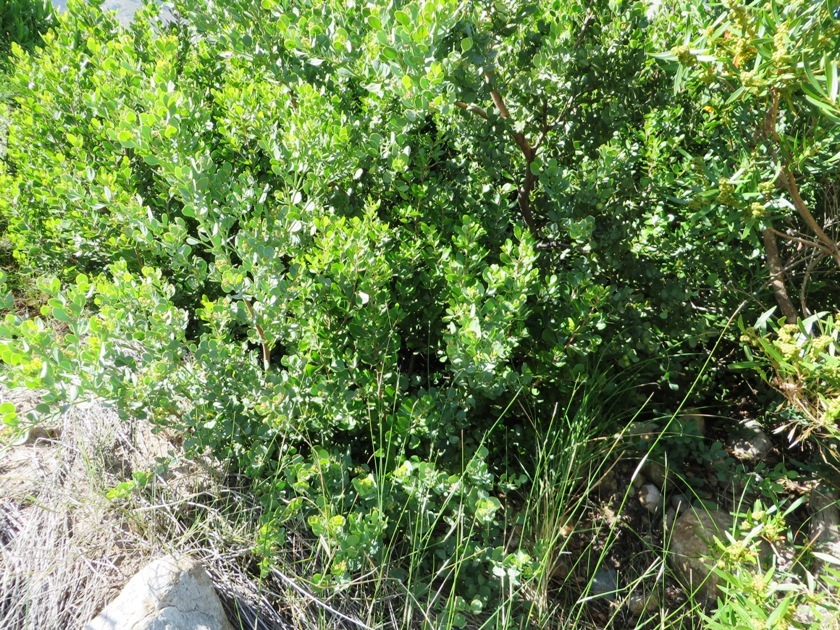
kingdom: Plantae
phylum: Tracheophyta
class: Magnoliopsida
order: Santalales
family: Santalaceae
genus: Osyris
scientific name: Osyris compressa
